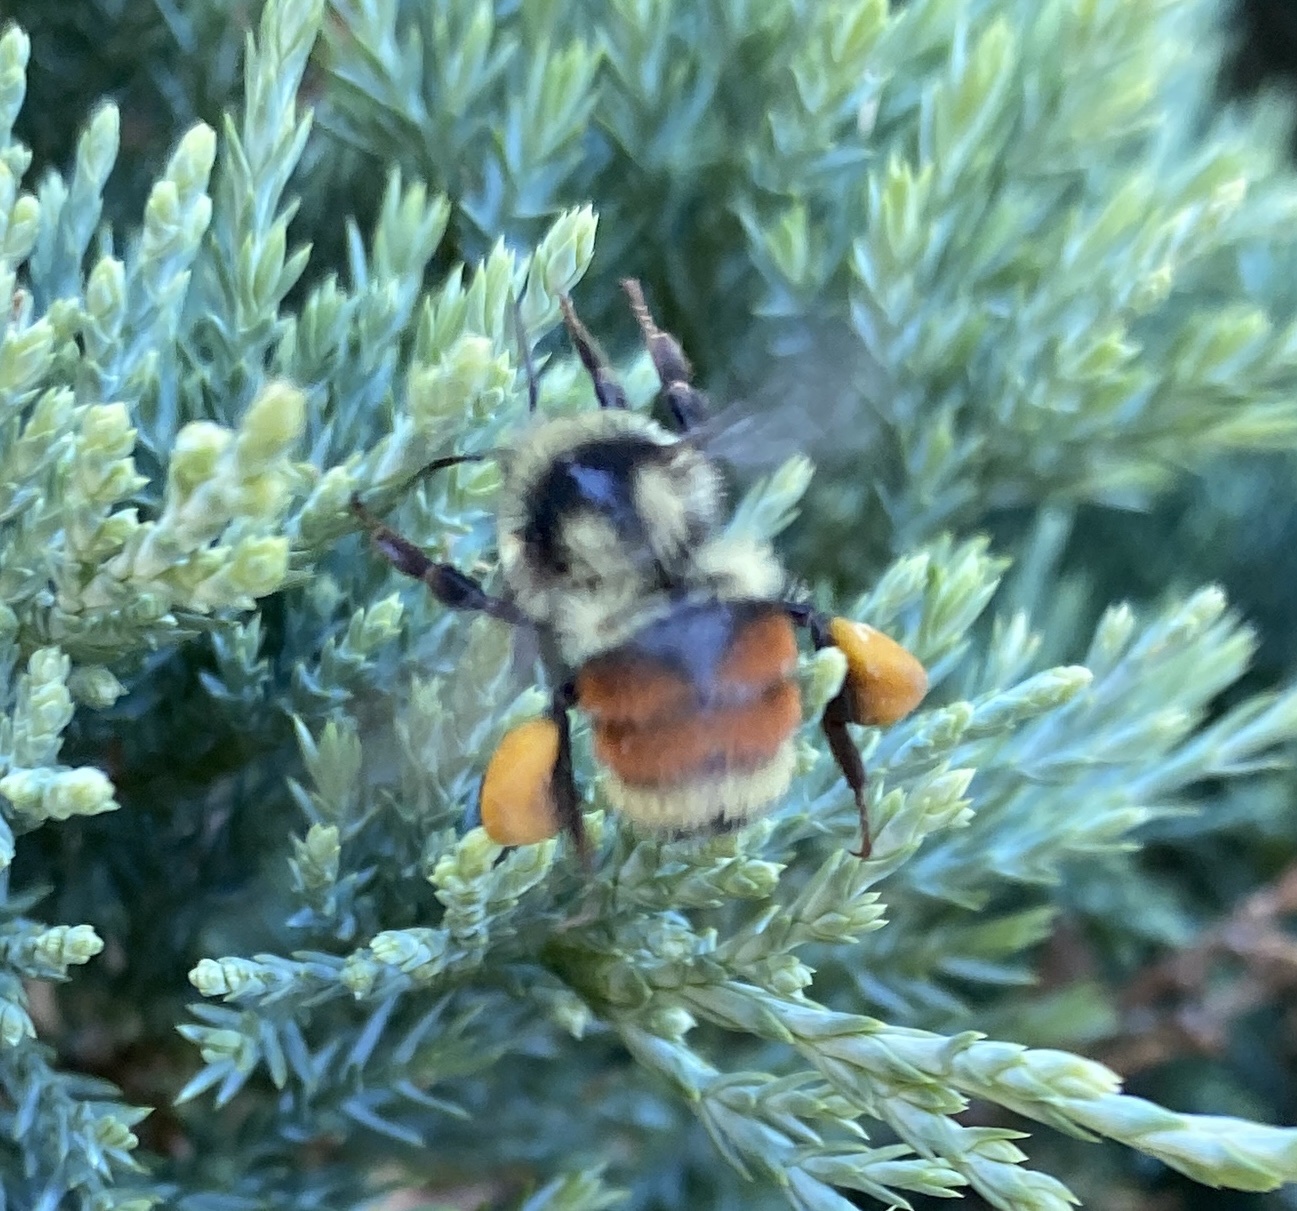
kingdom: Animalia
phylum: Arthropoda
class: Insecta
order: Hymenoptera
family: Apidae
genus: Bombus
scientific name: Bombus bifarius
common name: Two form bumble bee
